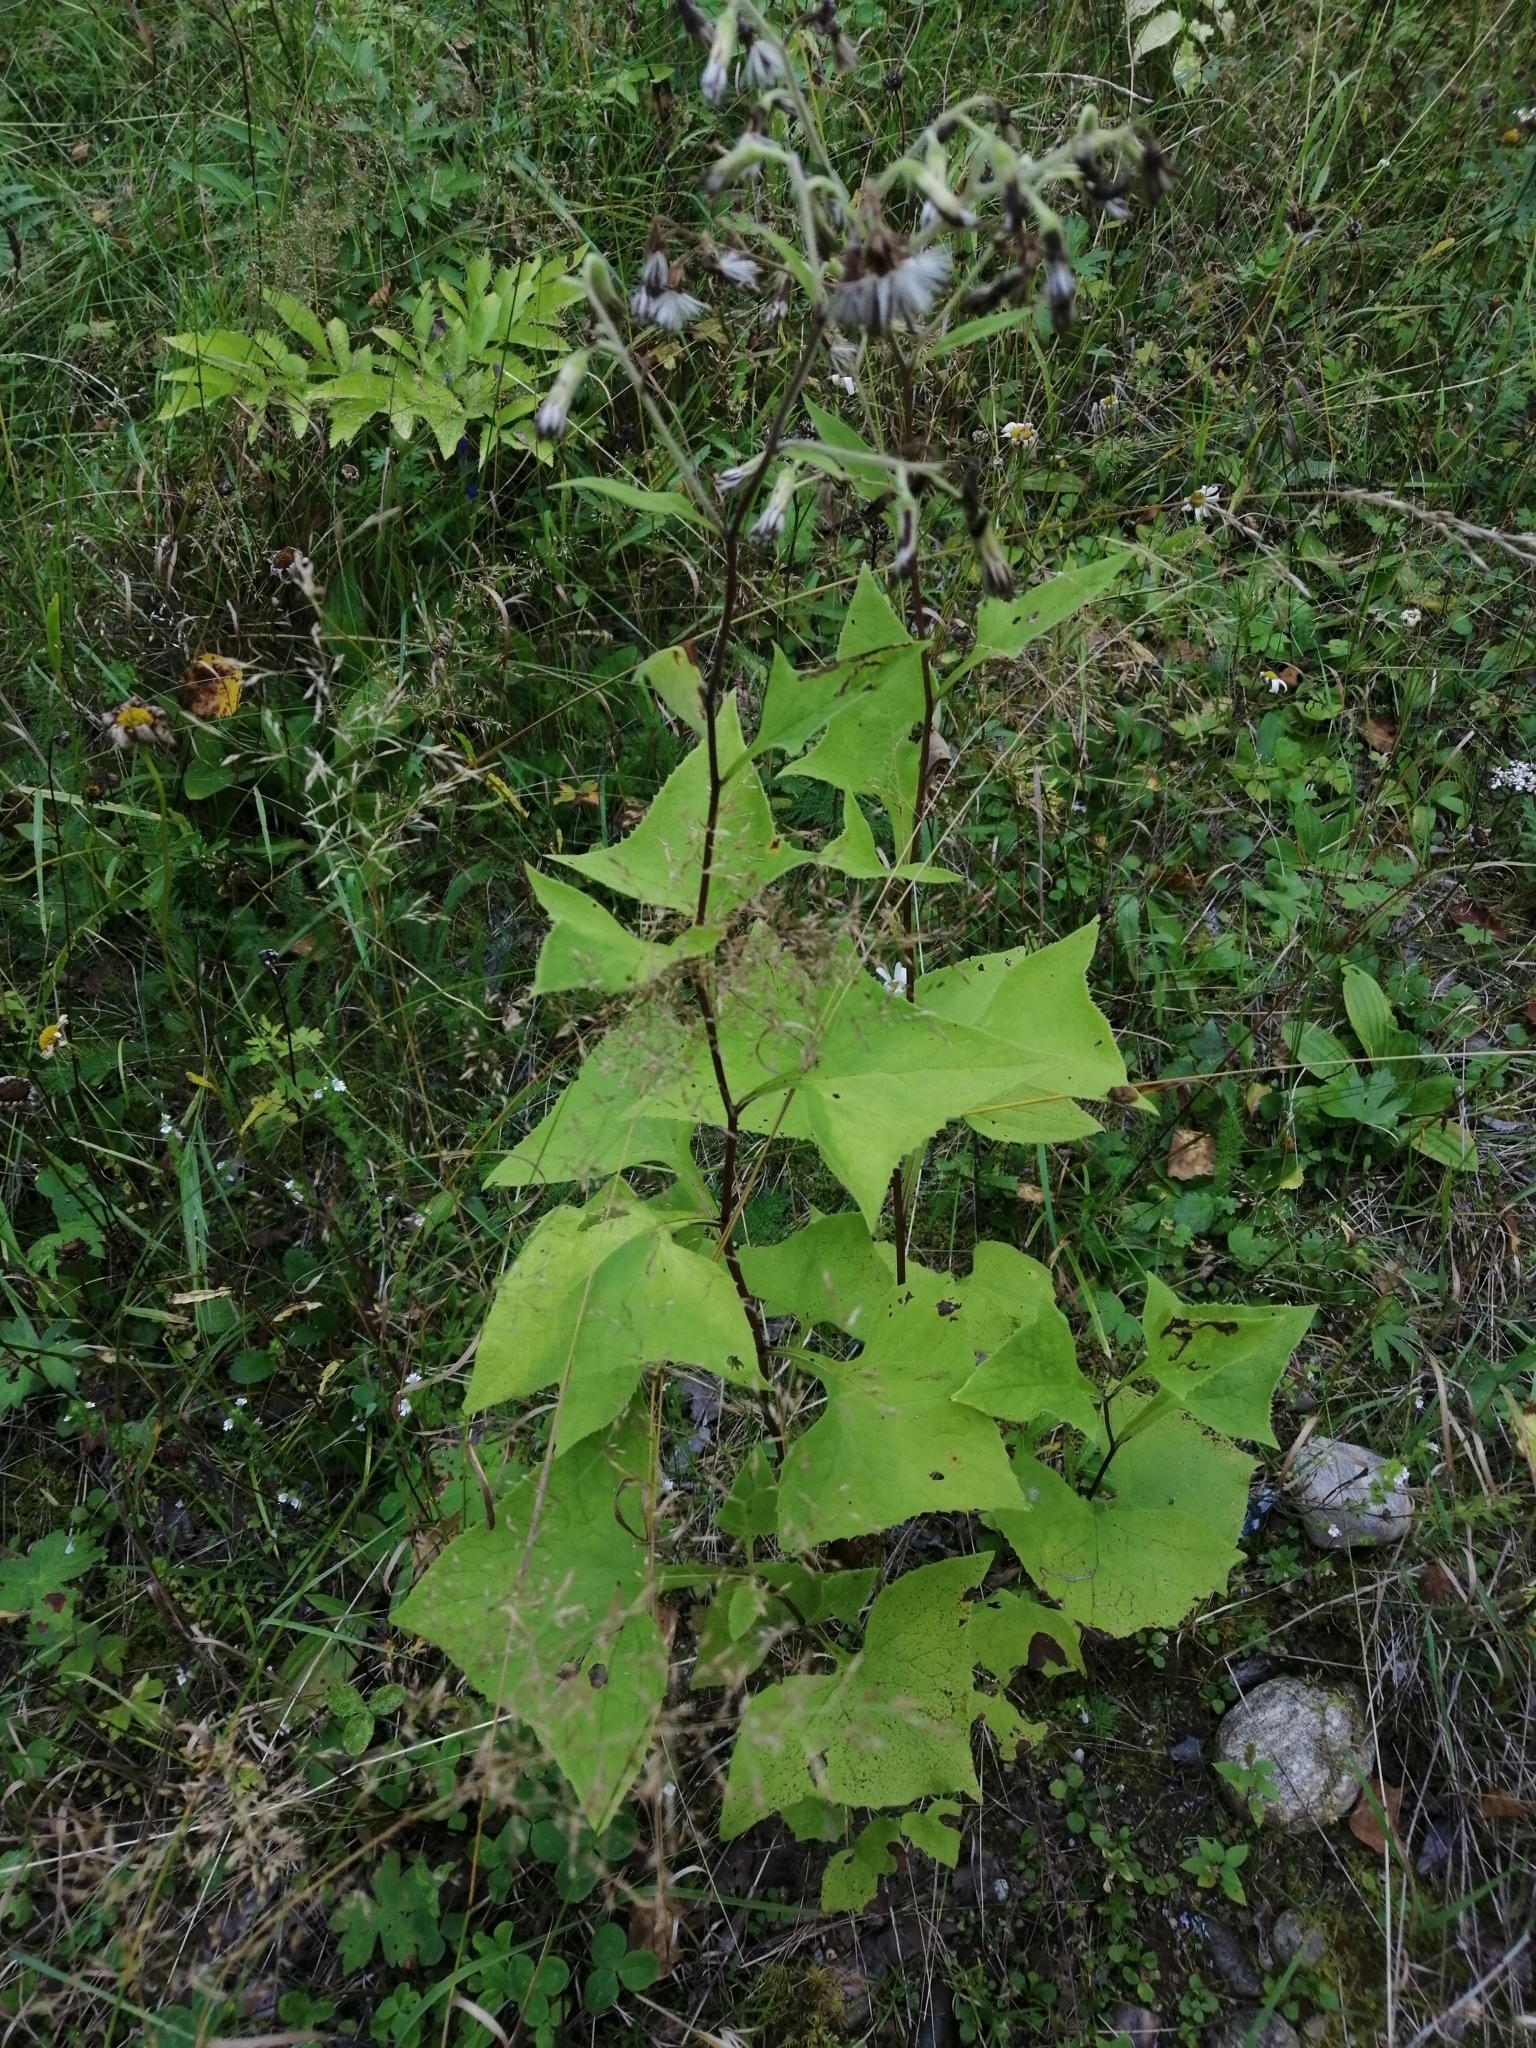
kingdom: Plantae
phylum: Tracheophyta
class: Magnoliopsida
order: Asterales
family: Asteraceae
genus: Parasenecio
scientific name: Parasenecio hastatus
